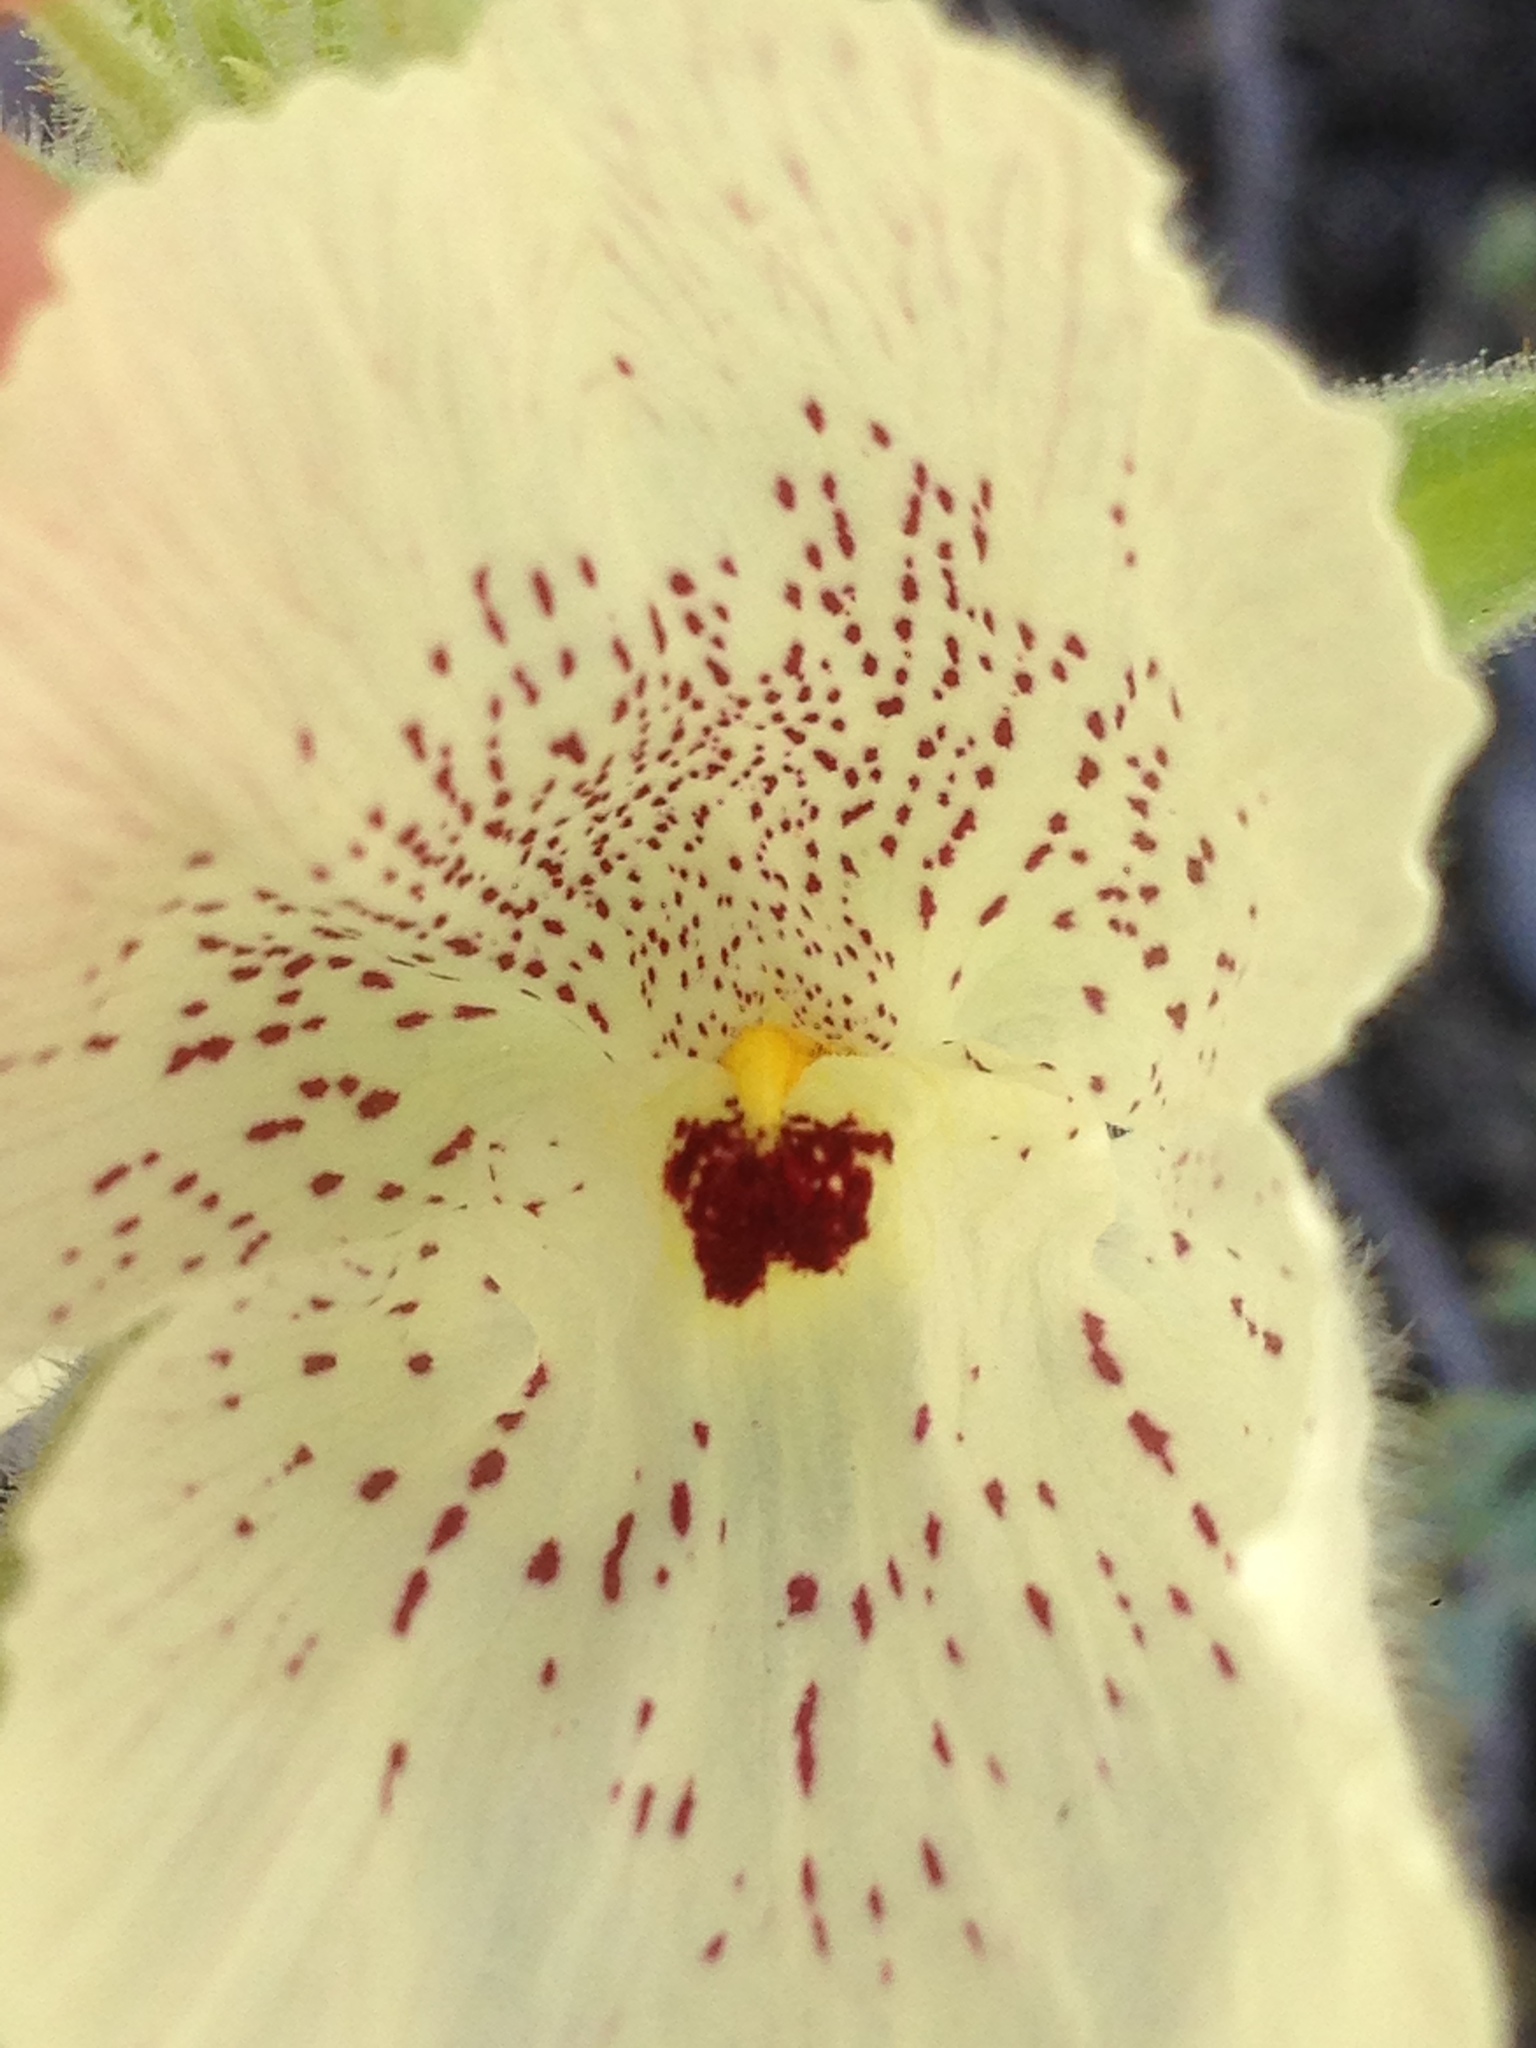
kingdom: Plantae
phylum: Tracheophyta
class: Magnoliopsida
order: Lamiales
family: Plantaginaceae
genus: Mohavea
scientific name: Mohavea confertiflora
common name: Ghost flower
